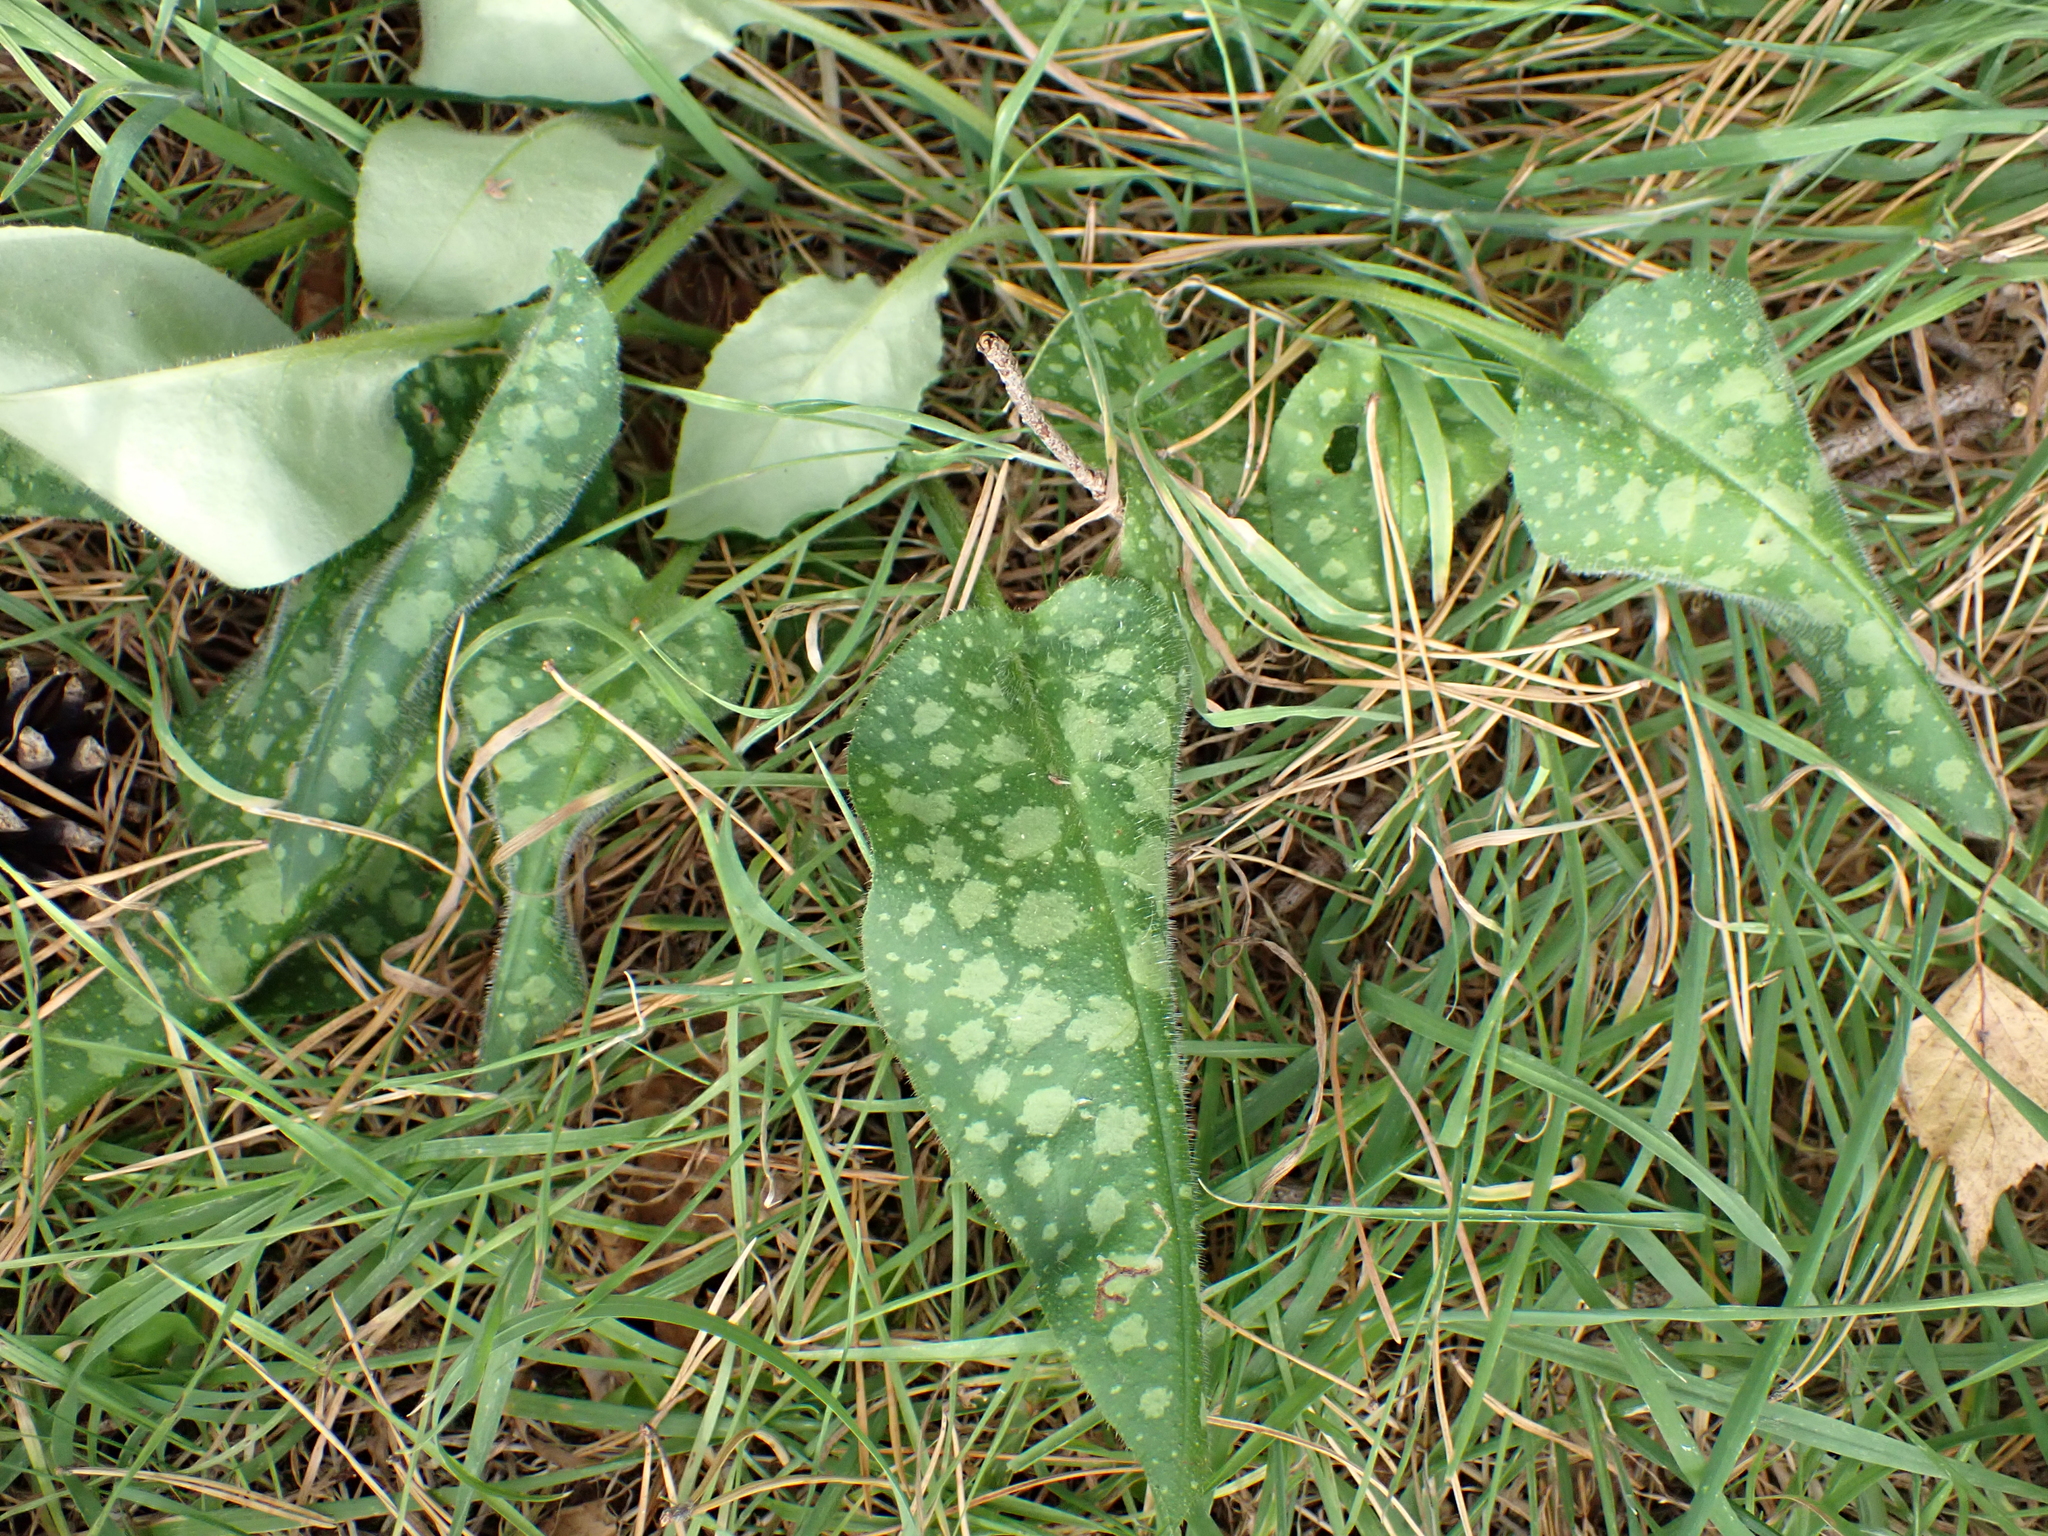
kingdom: Plantae
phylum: Tracheophyta
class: Magnoliopsida
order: Boraginales
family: Boraginaceae
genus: Pulmonaria
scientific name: Pulmonaria officinalis
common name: Lungwort
